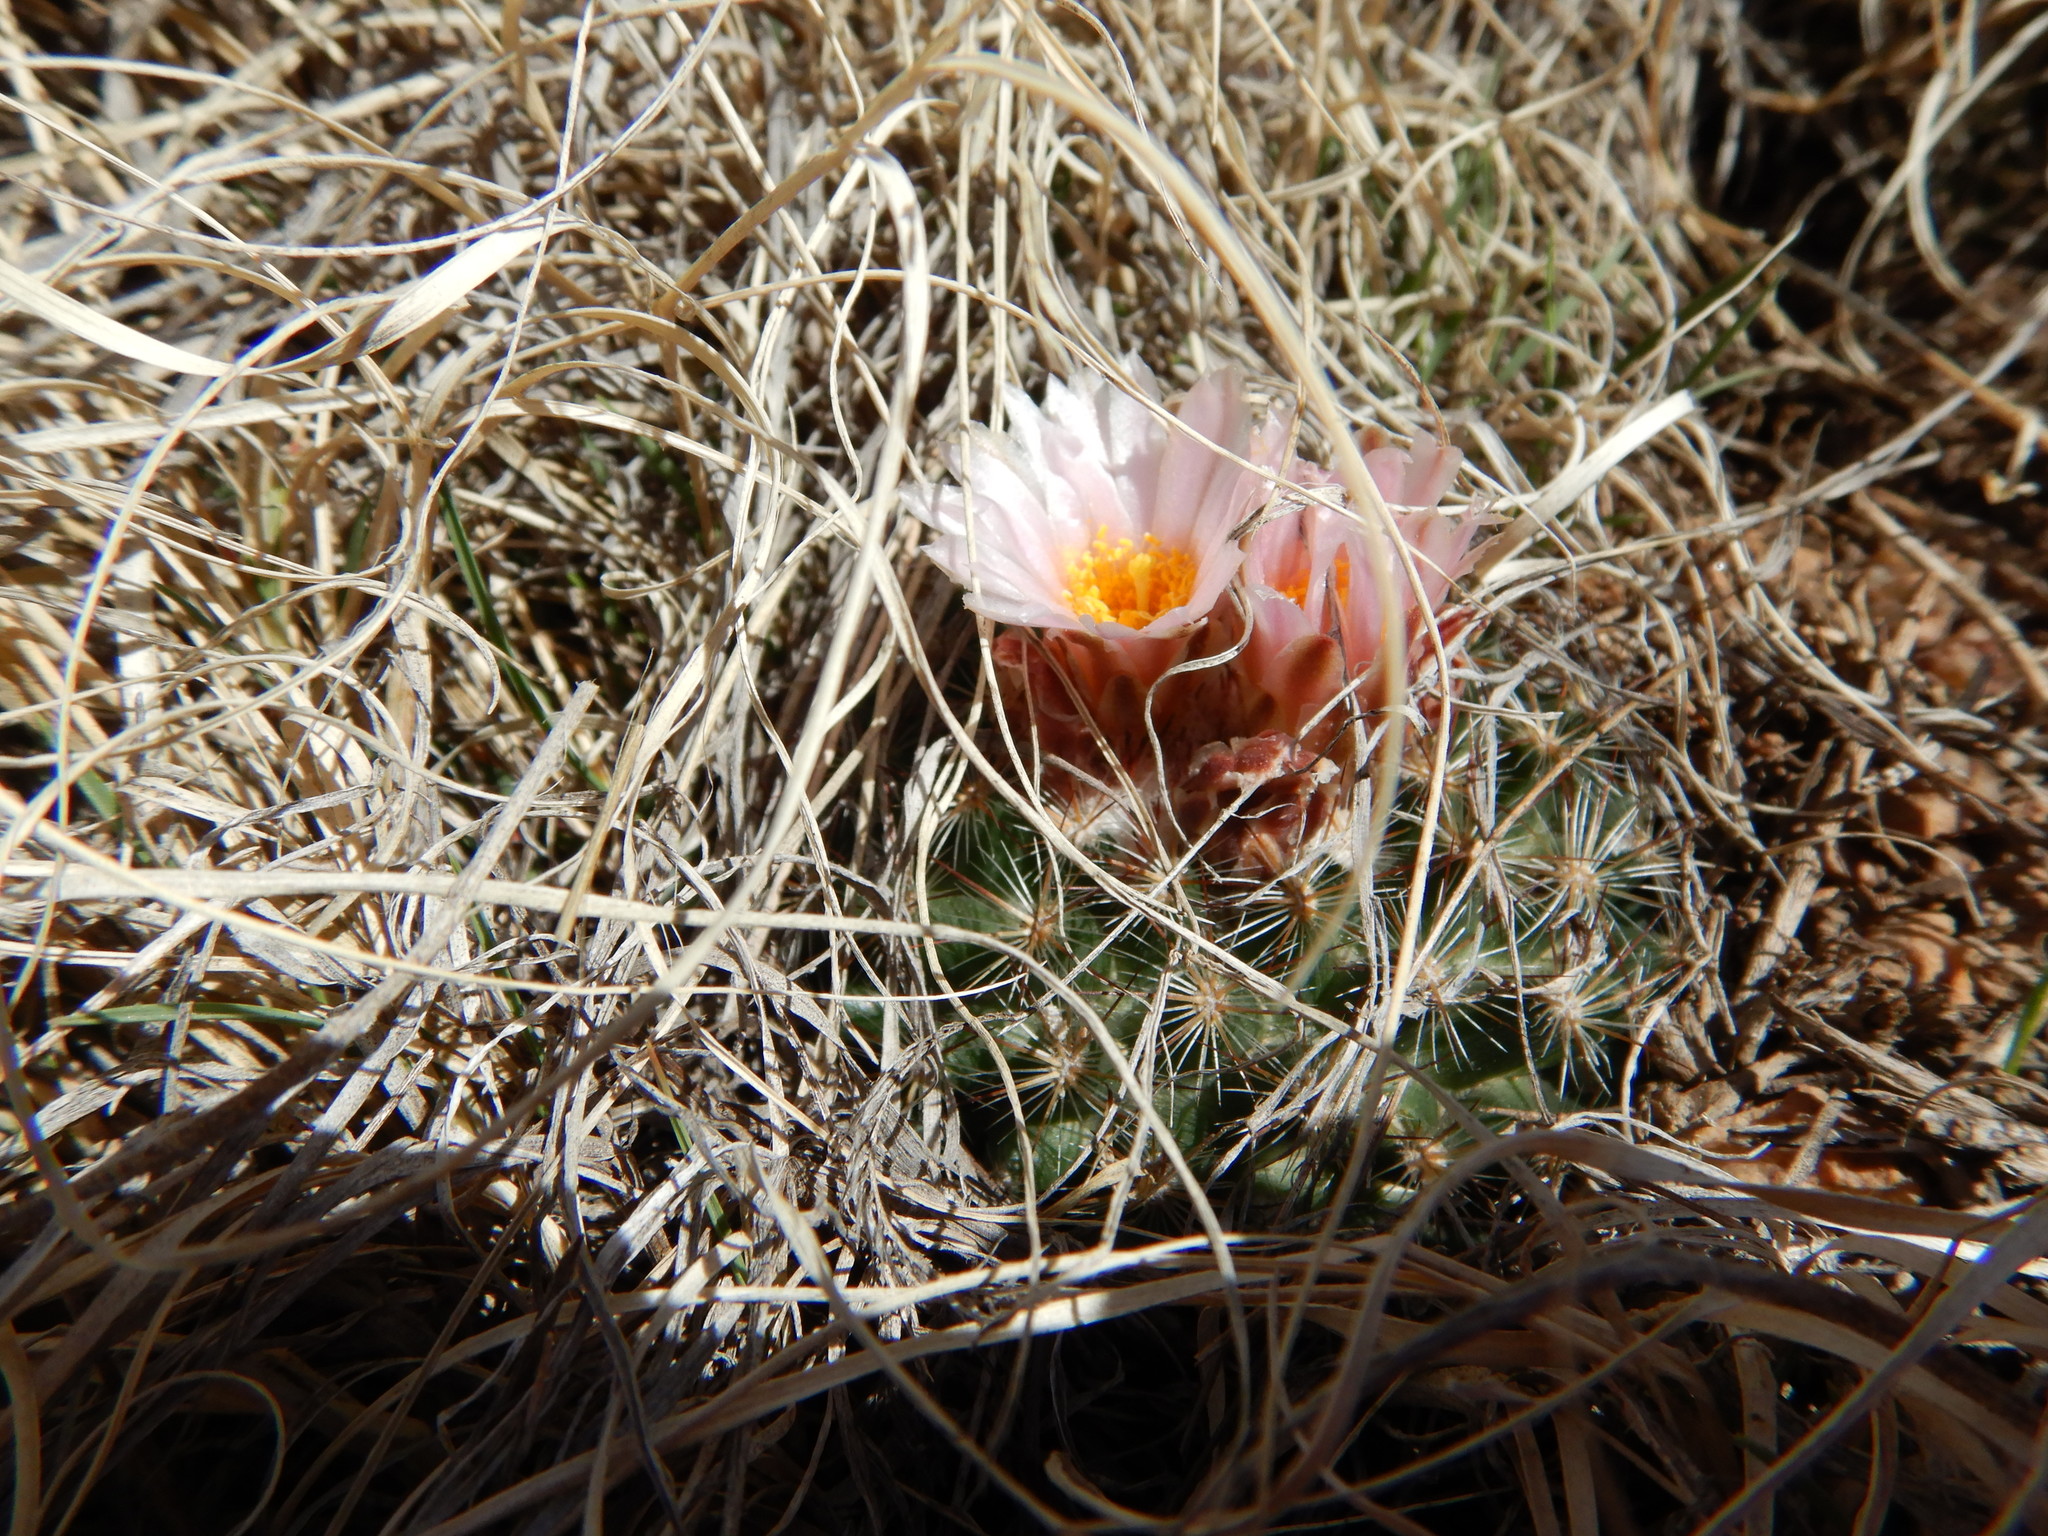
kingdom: Plantae
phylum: Tracheophyta
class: Magnoliopsida
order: Caryophyllales
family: Cactaceae
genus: Pediocactus
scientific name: Pediocactus simpsonii
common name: Simpson's hedgehog cactus
